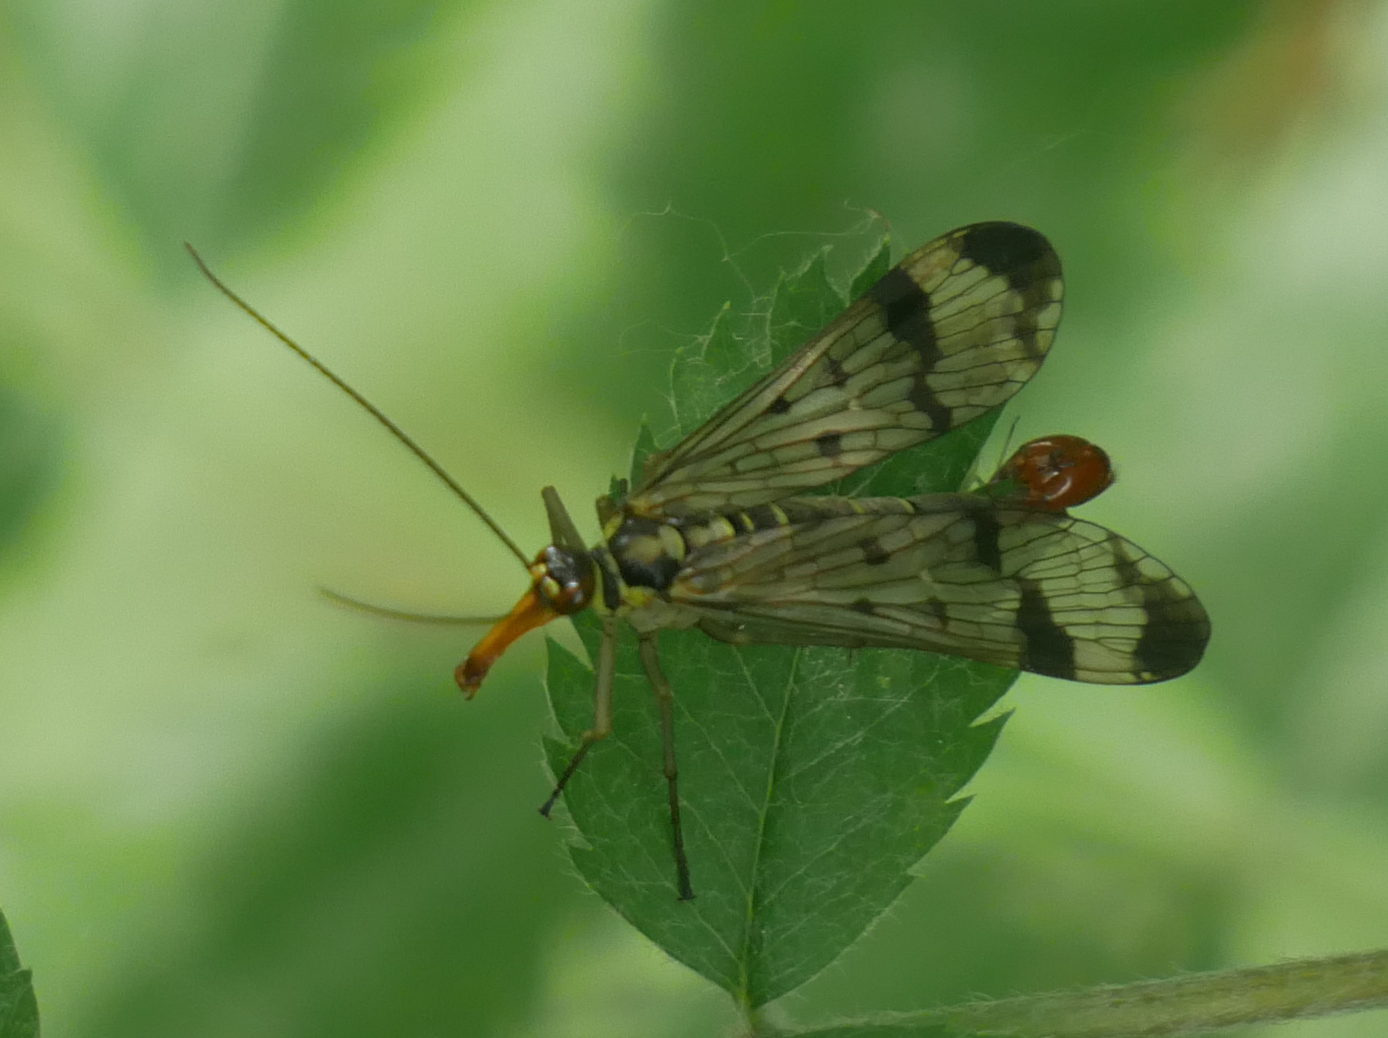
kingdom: Animalia
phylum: Arthropoda
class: Insecta
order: Mecoptera
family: Panorpidae
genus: Panorpa
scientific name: Panorpa communis
